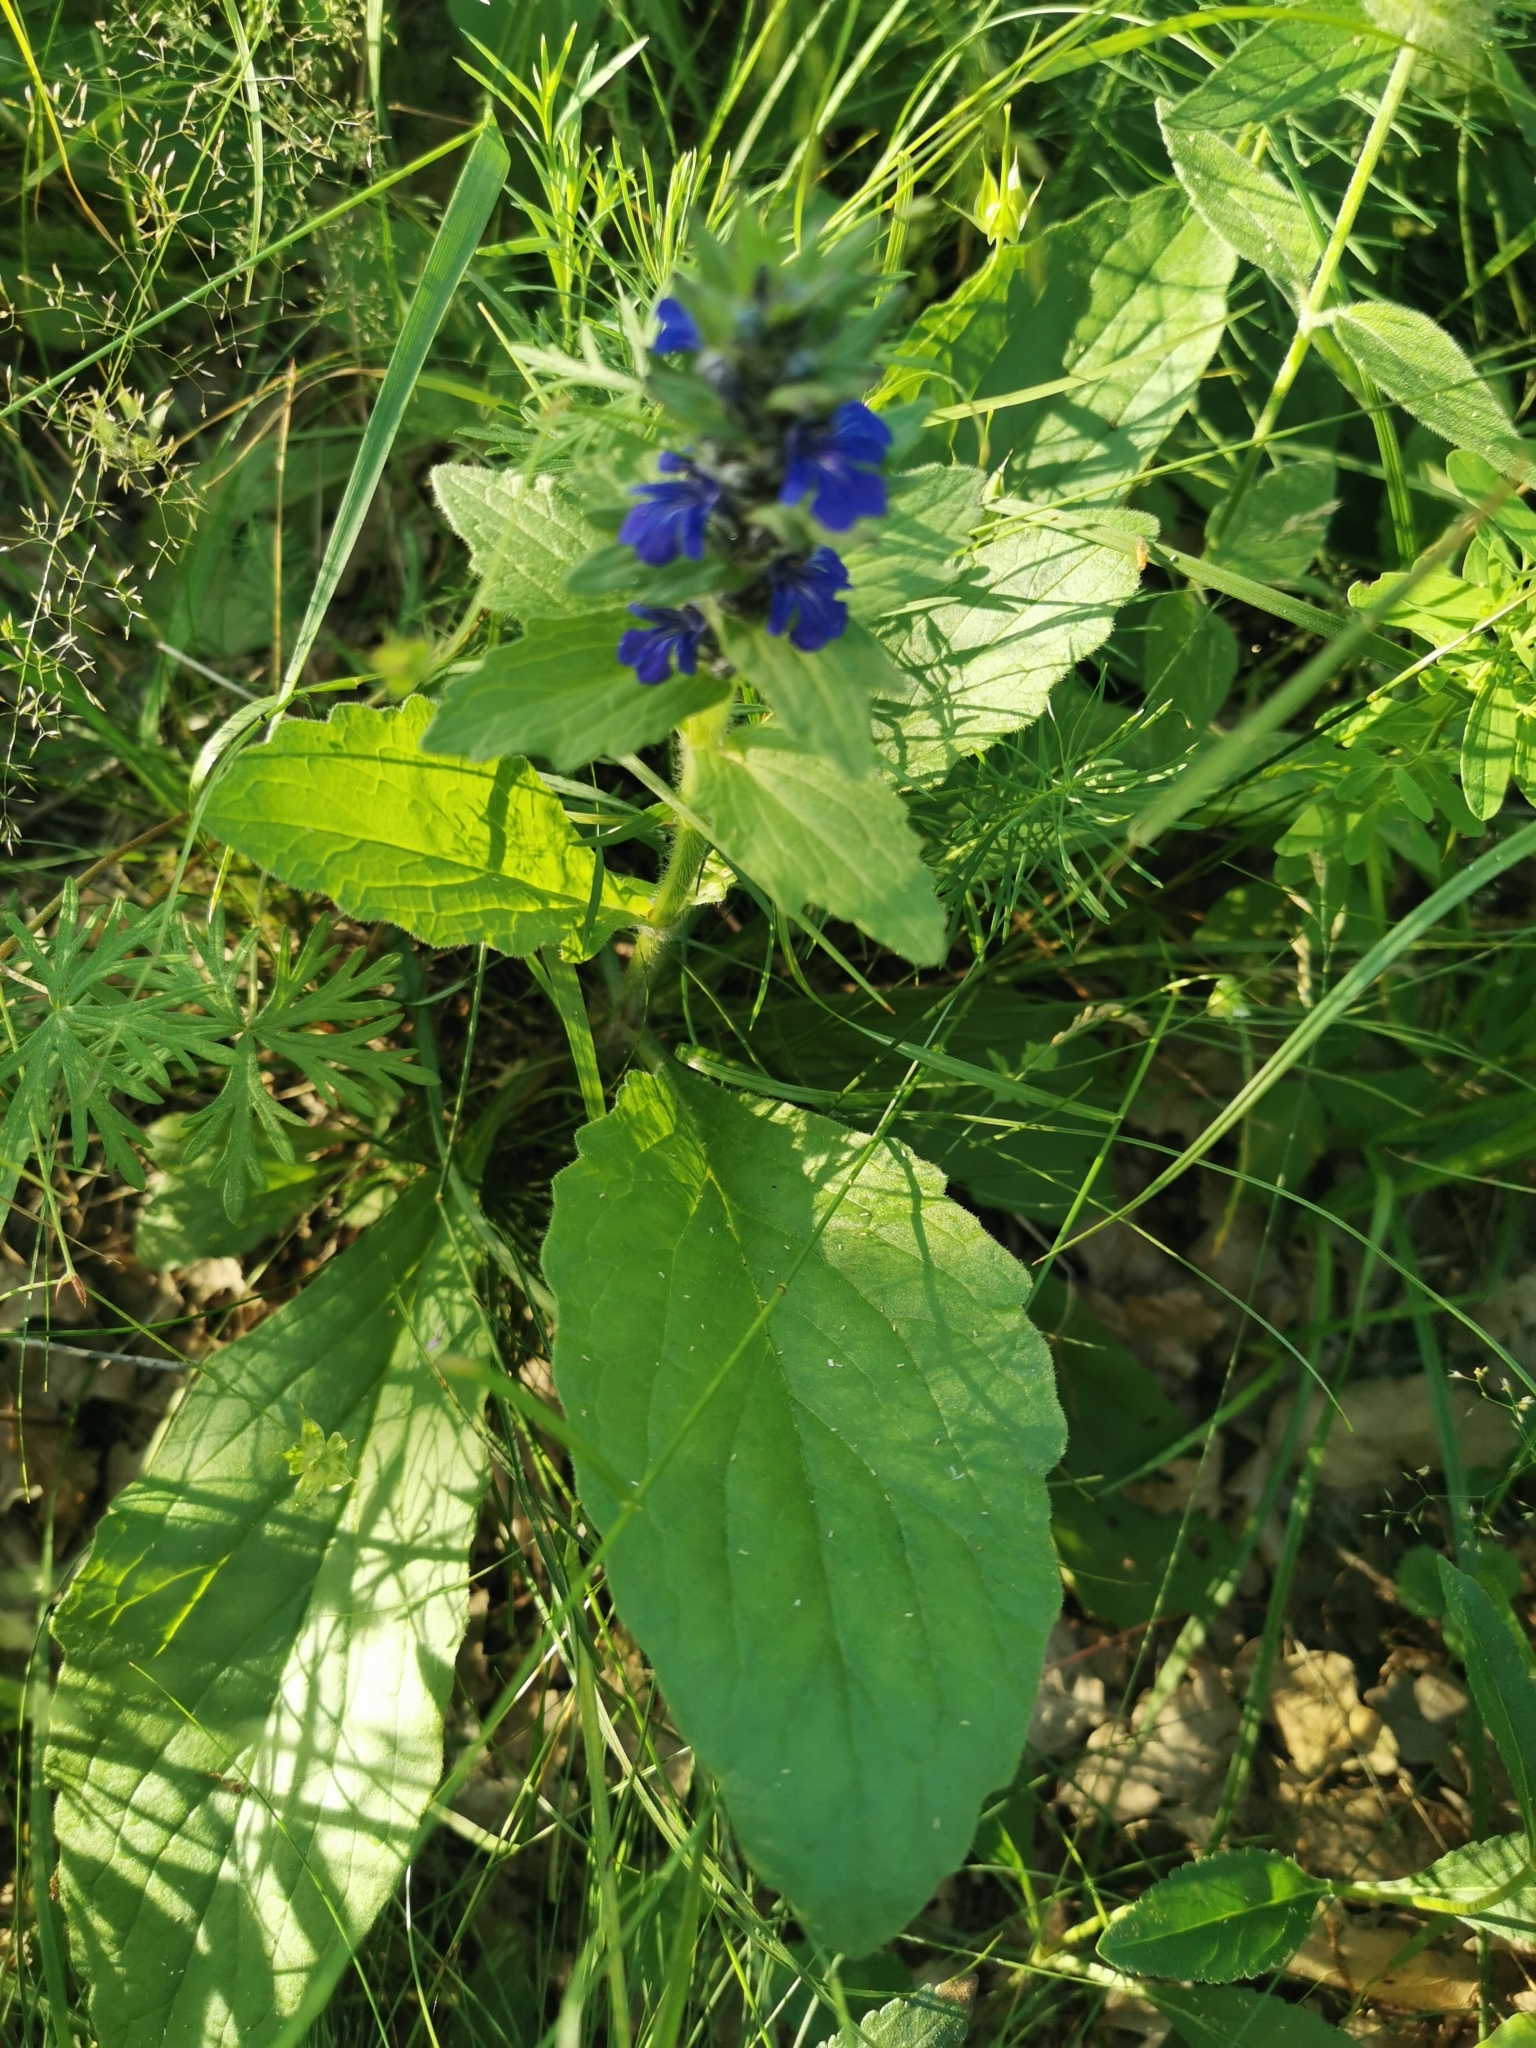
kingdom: Plantae
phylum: Tracheophyta
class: Magnoliopsida
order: Lamiales
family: Lamiaceae
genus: Ajuga
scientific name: Ajuga genevensis
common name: Blue bugle
